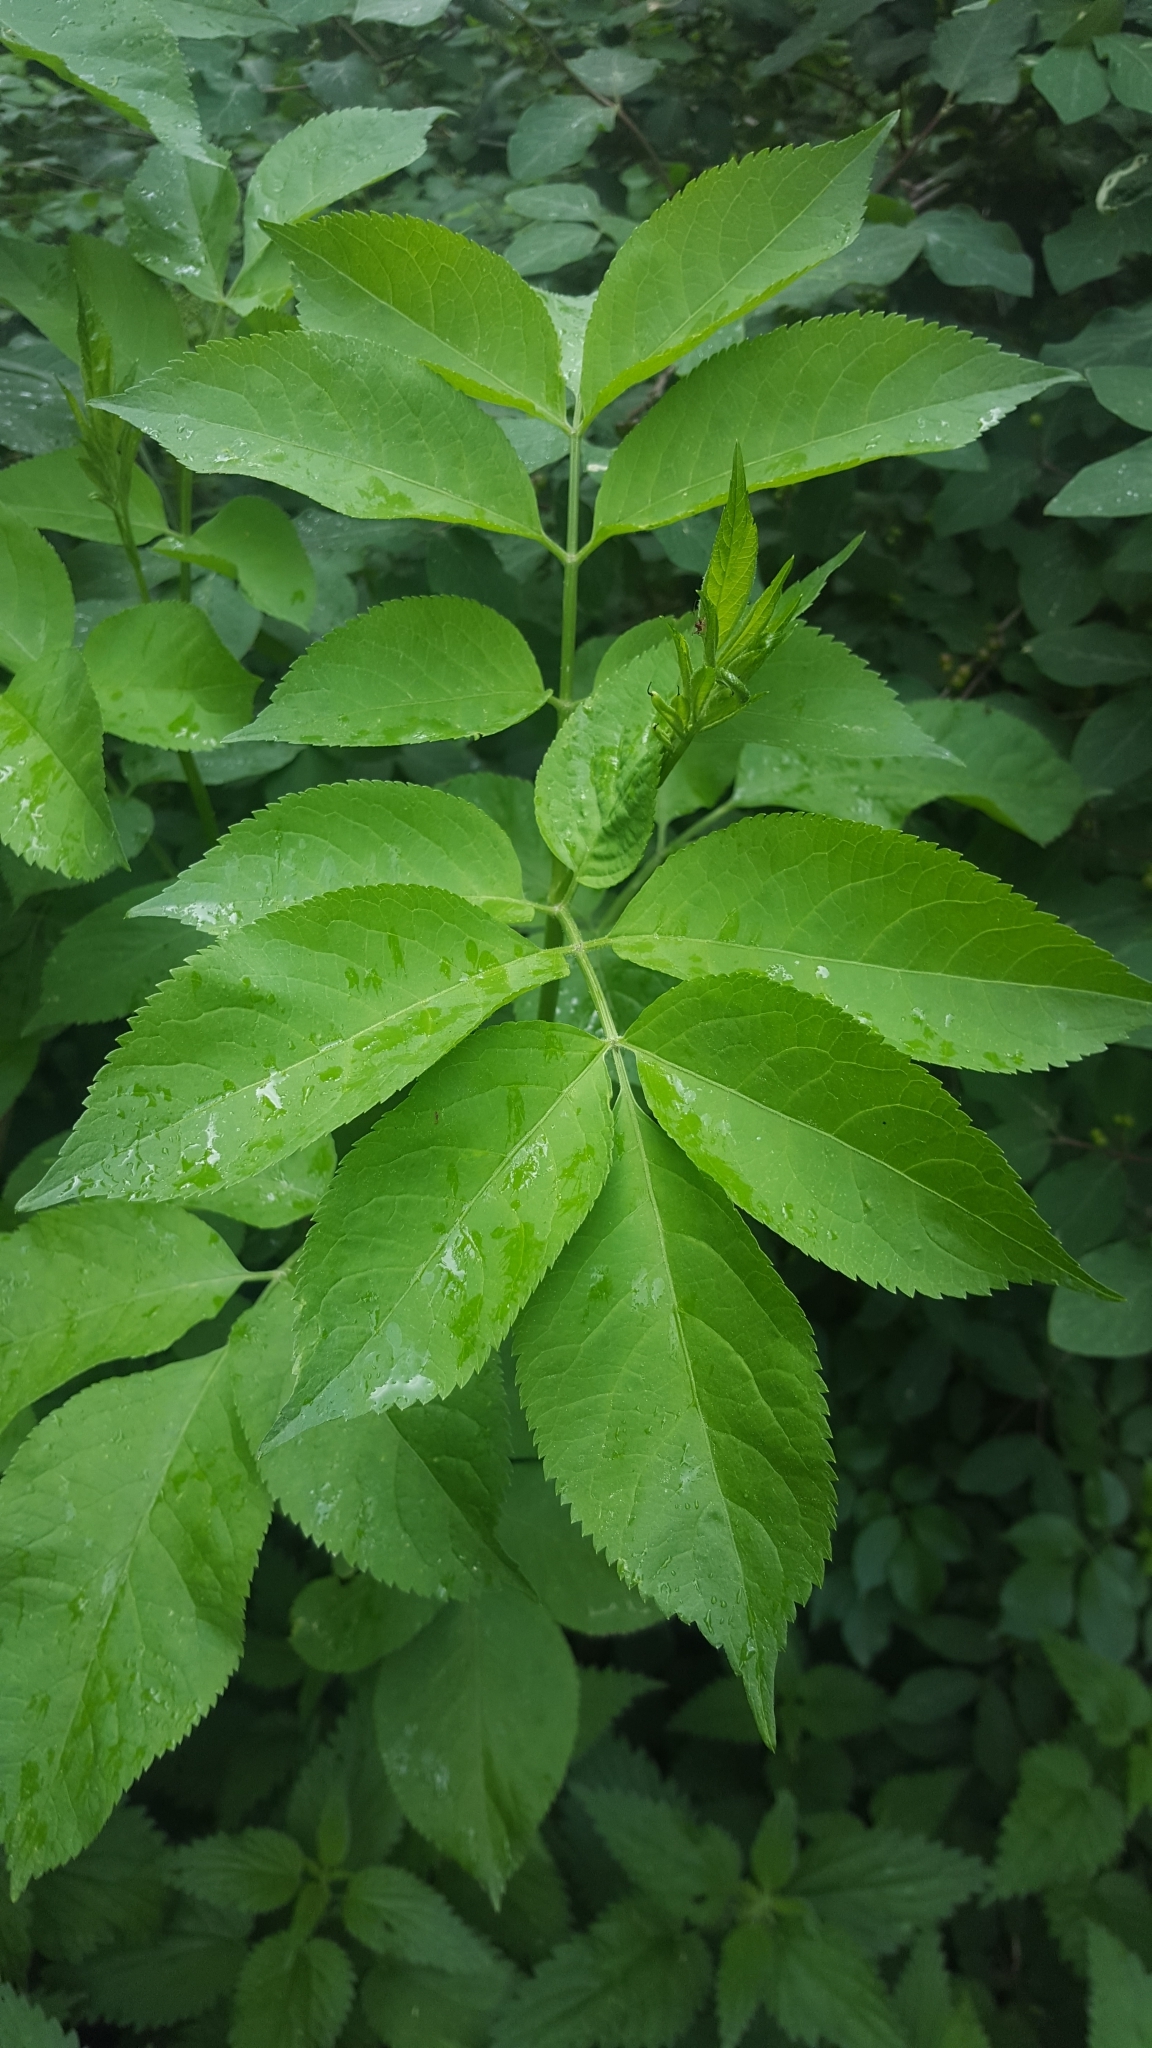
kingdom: Plantae
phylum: Tracheophyta
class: Magnoliopsida
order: Dipsacales
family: Viburnaceae
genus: Sambucus
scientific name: Sambucus nigra
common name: Elder
